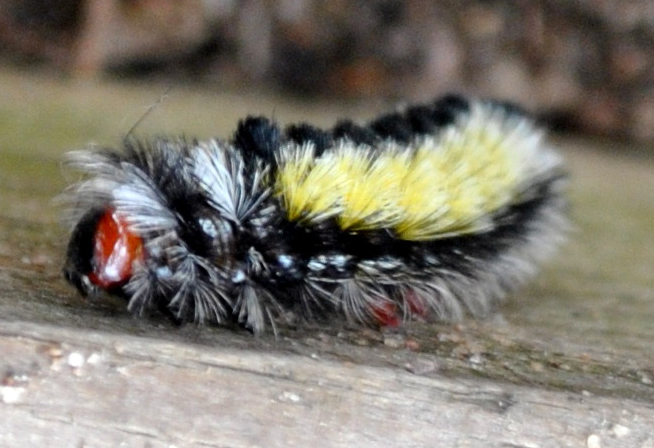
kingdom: Animalia
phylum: Arthropoda
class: Insecta
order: Lepidoptera
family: Erebidae
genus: Ctenucha
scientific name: Ctenucha virginica
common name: Virginia ctenucha moth
